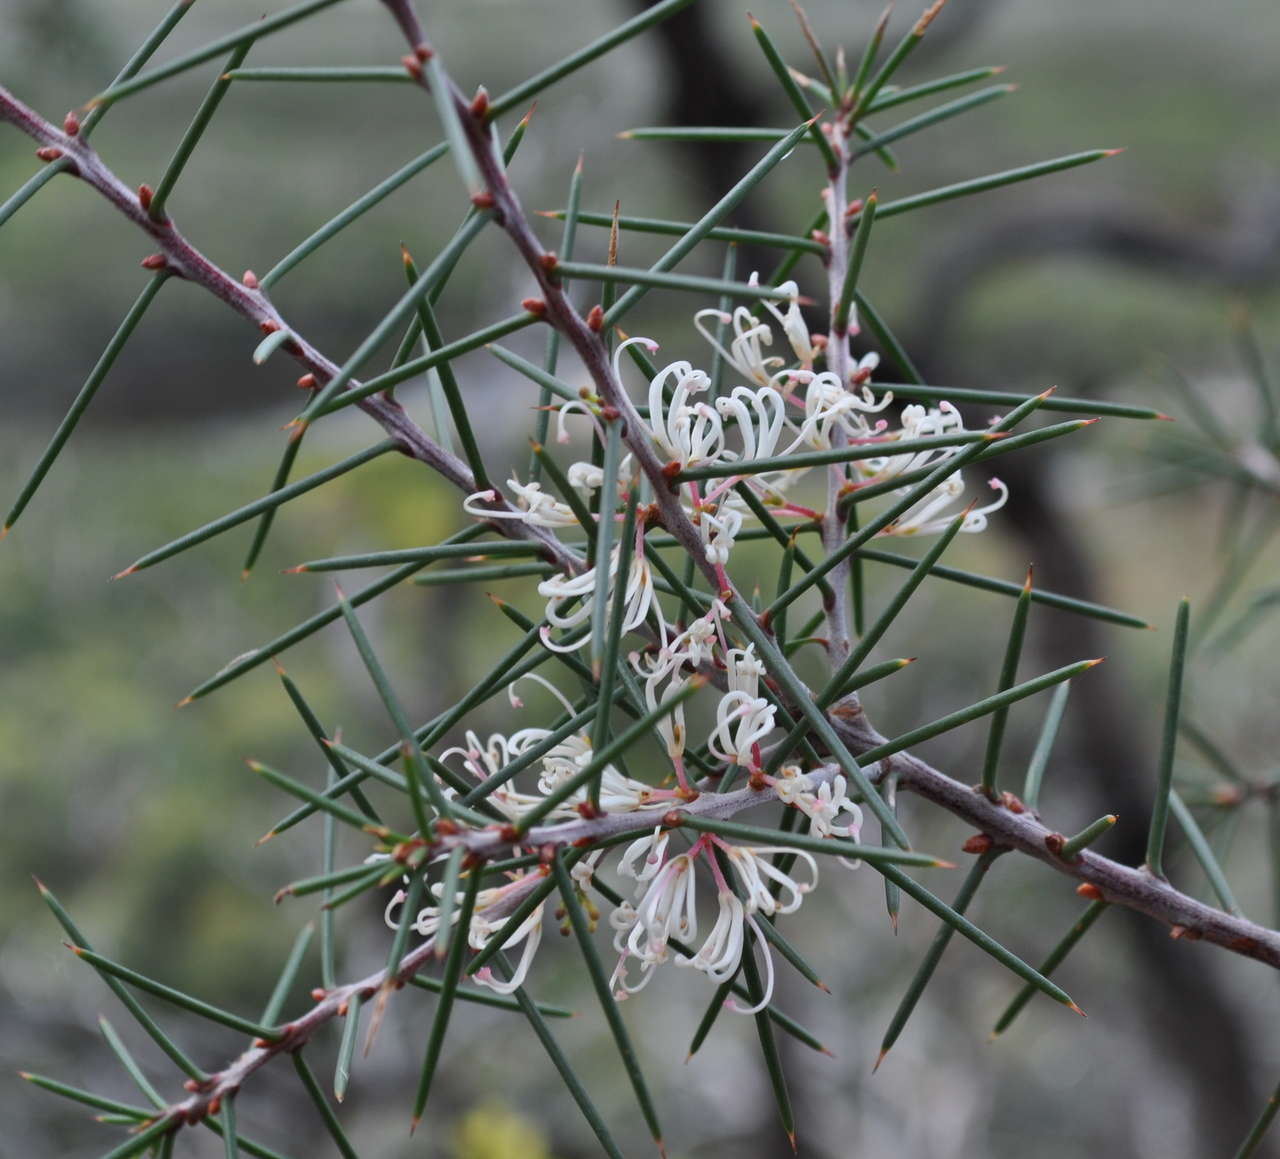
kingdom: Plantae
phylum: Tracheophyta
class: Magnoliopsida
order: Proteales
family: Proteaceae
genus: Hakea
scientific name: Hakea decurrens
